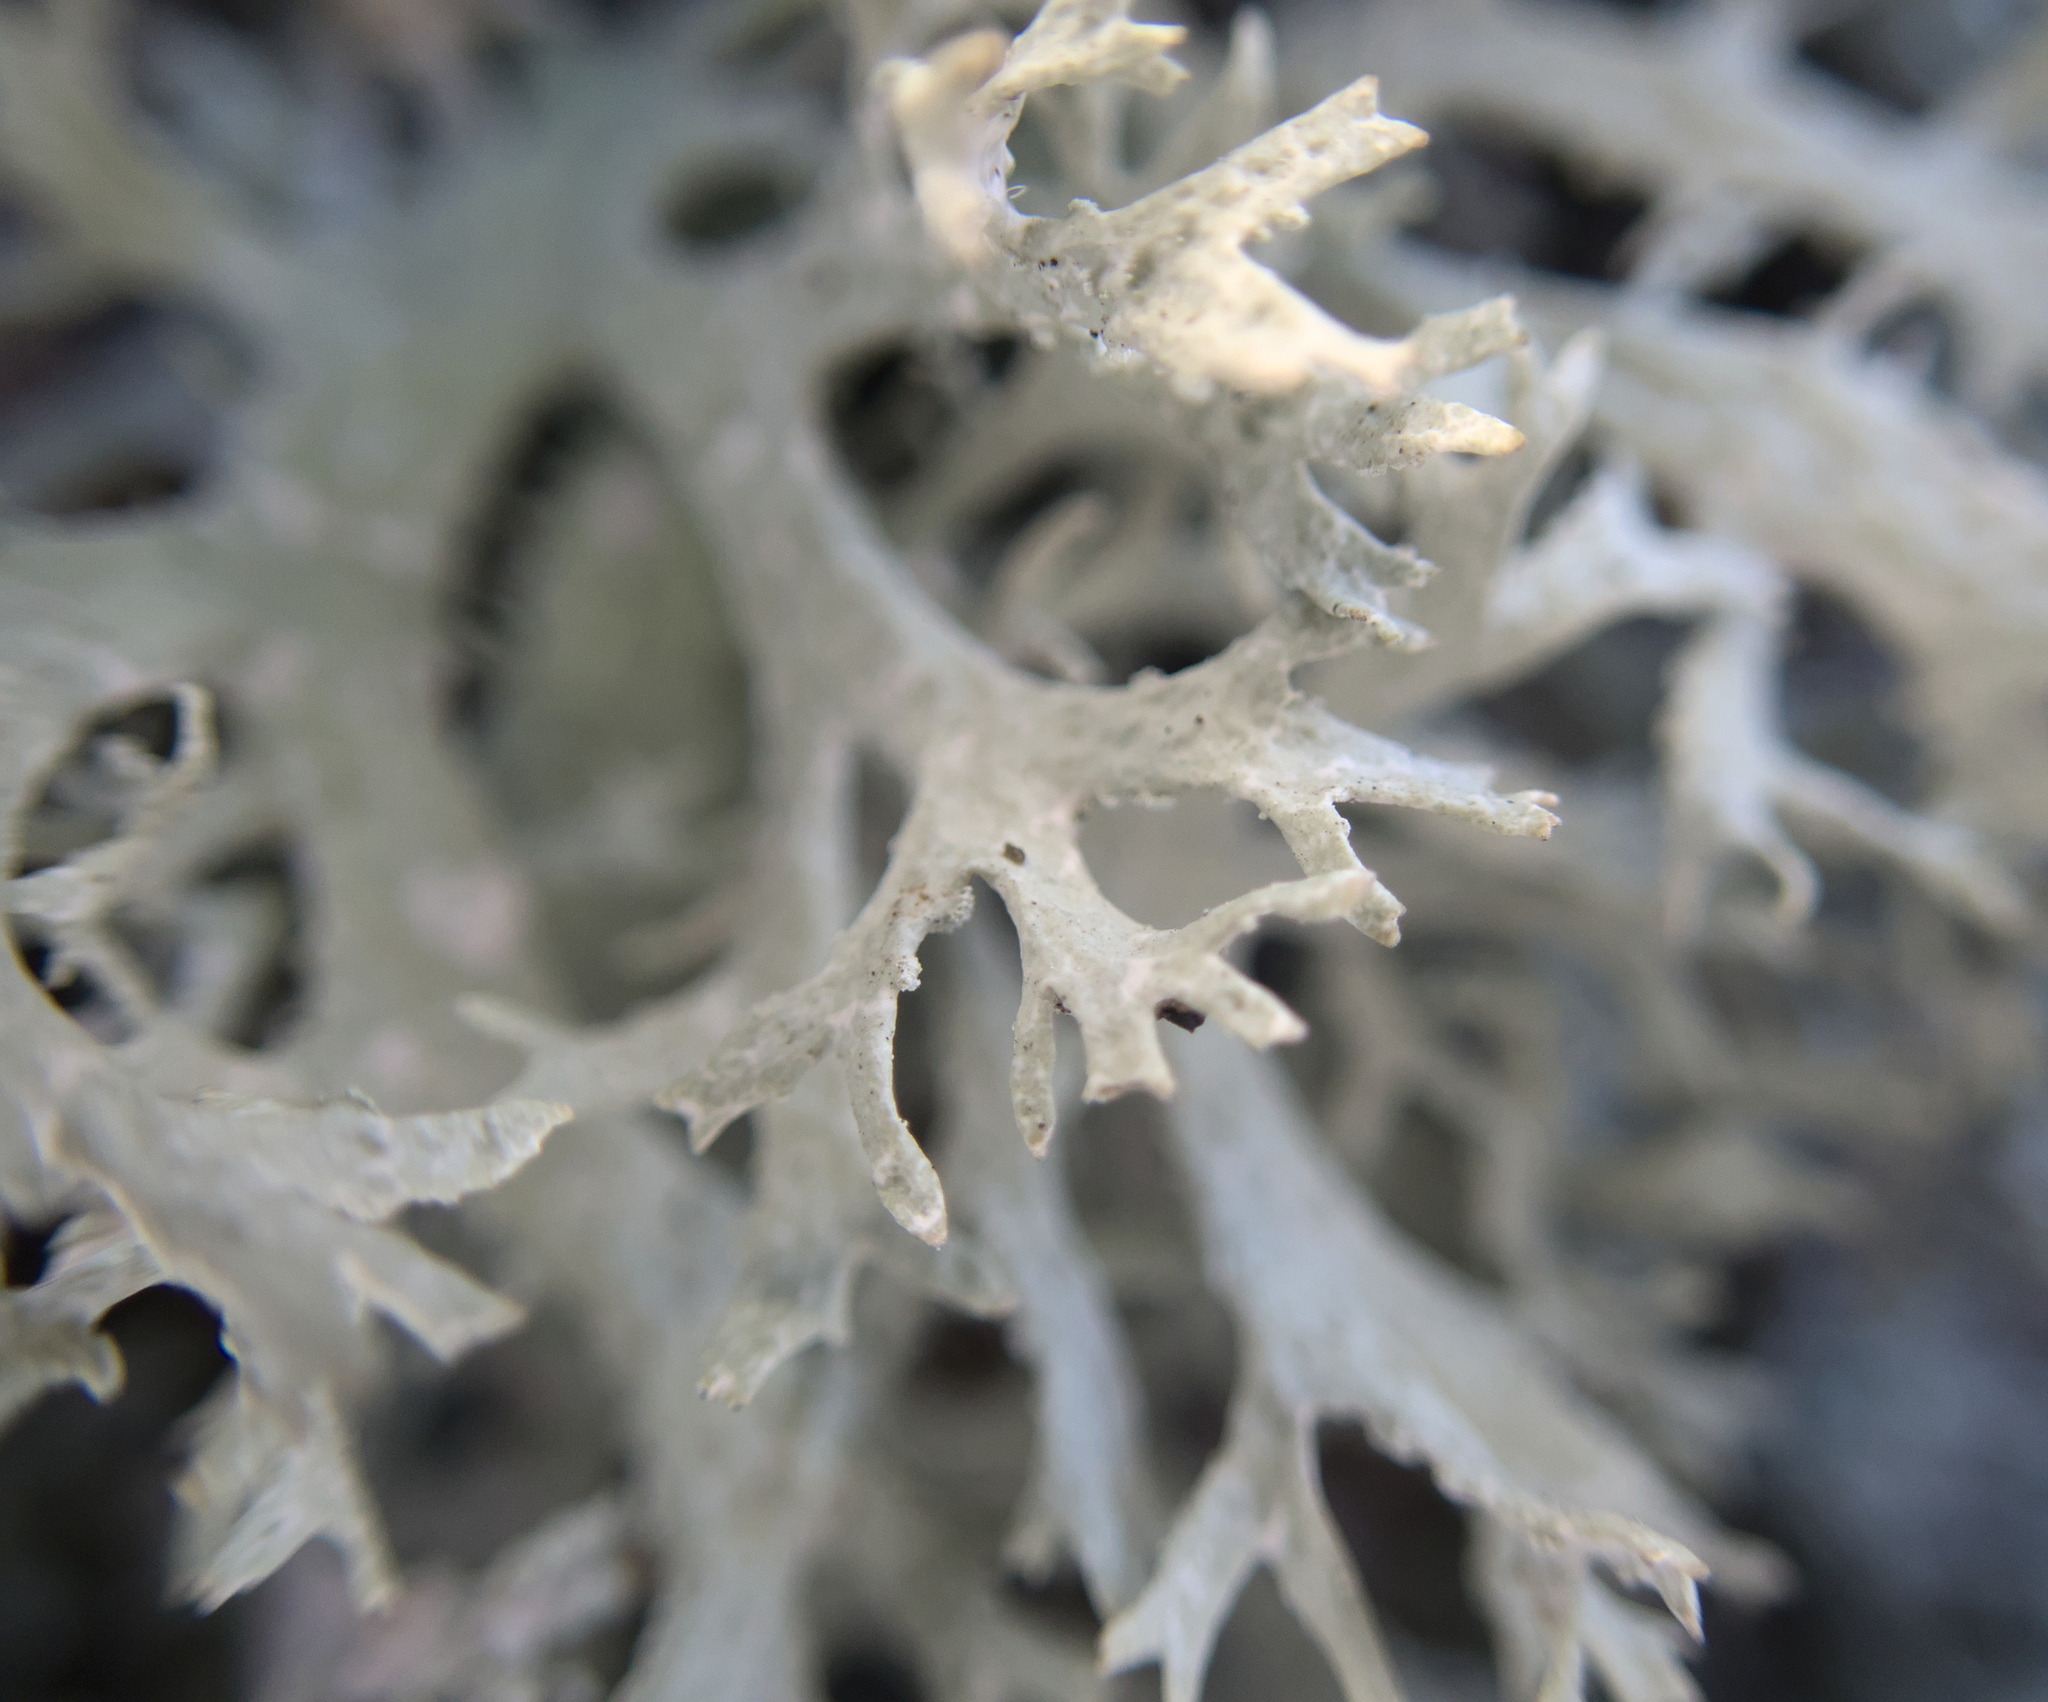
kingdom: Fungi
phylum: Ascomycota
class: Lecanoromycetes
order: Lecanorales
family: Parmeliaceae
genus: Evernia
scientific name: Evernia prunastri
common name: Oak moss
